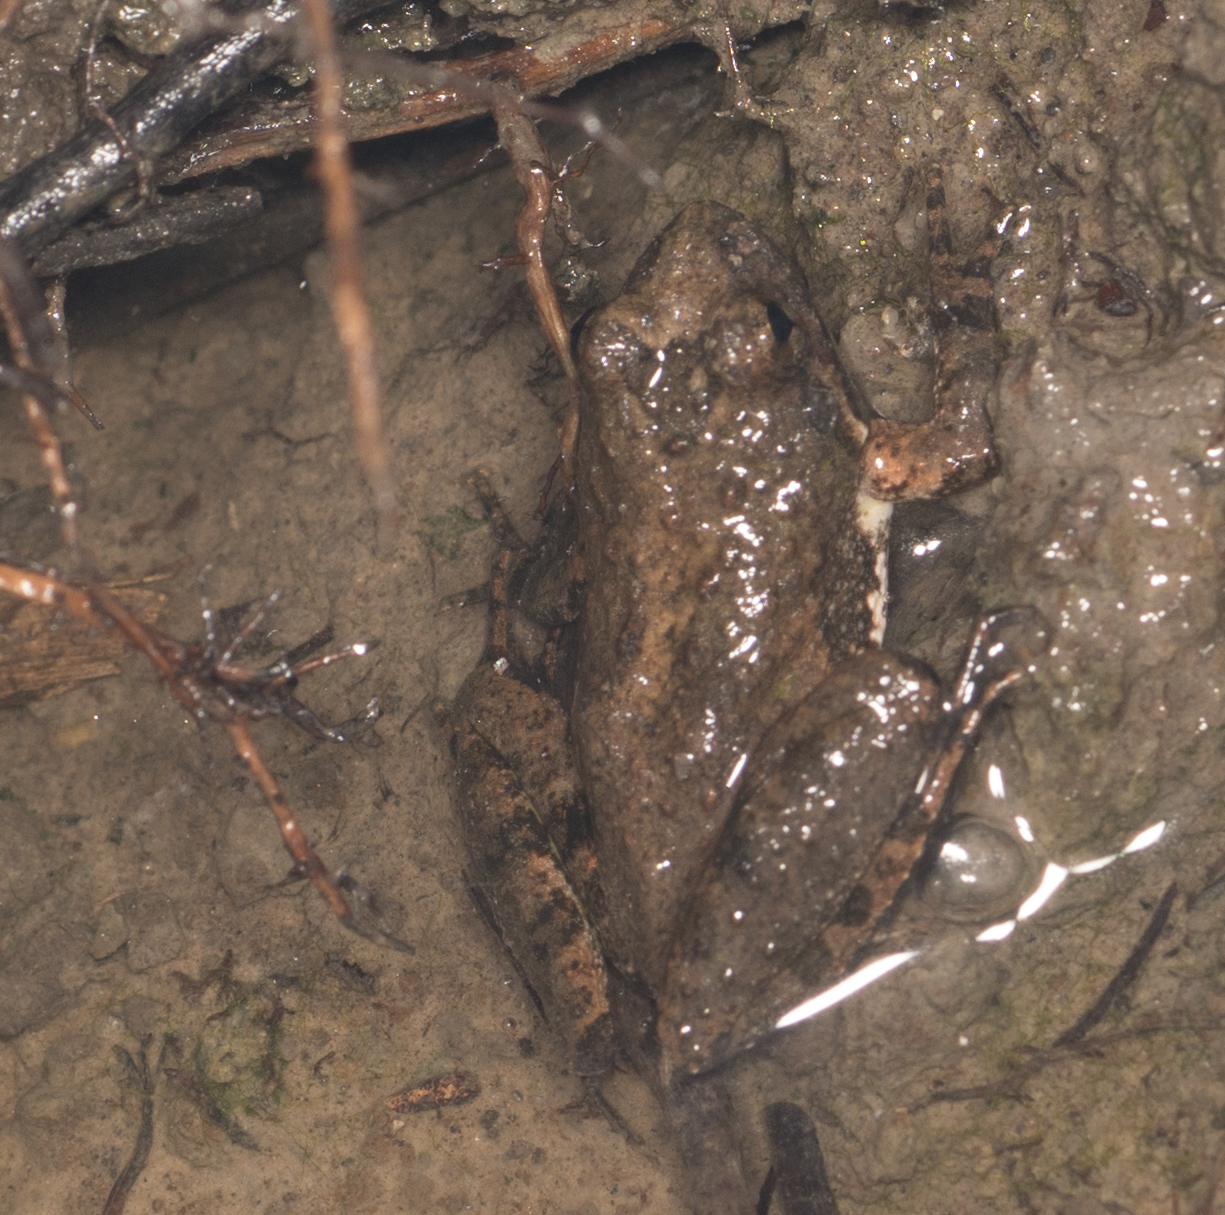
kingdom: Animalia
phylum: Chordata
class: Amphibia
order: Anura
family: Hylidae
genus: Acris
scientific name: Acris blanchardi
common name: Blanchard's cricket frog
